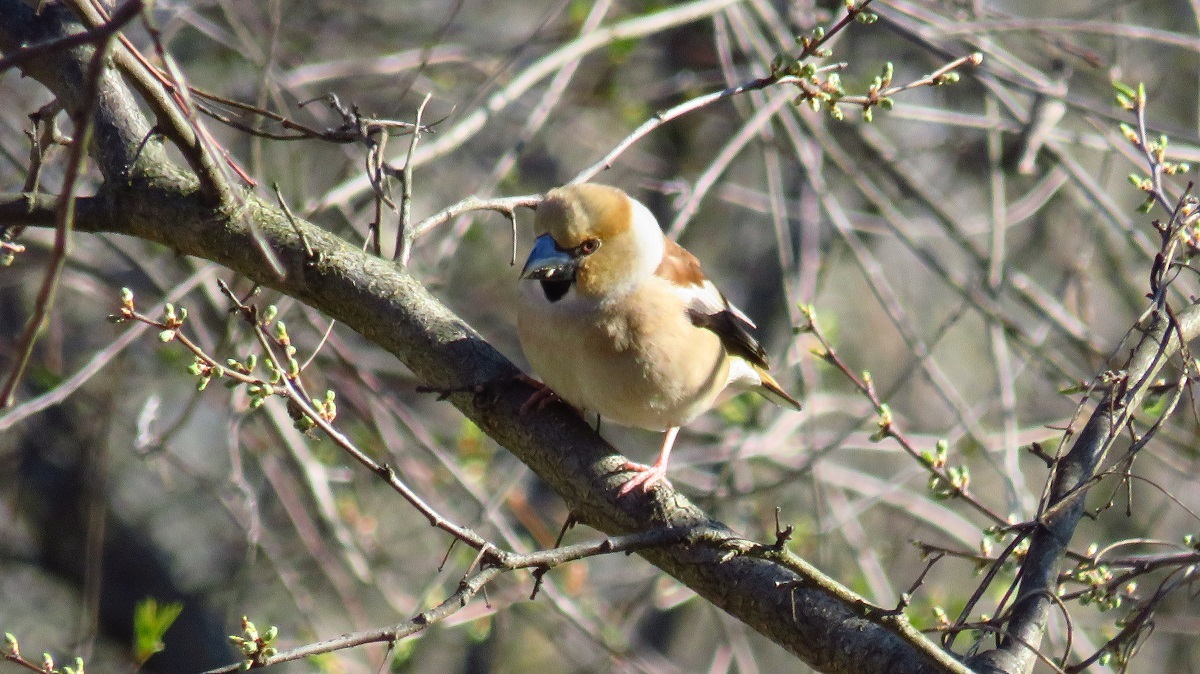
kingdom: Animalia
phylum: Chordata
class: Aves
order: Passeriformes
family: Fringillidae
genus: Coccothraustes
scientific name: Coccothraustes coccothraustes
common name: Hawfinch
